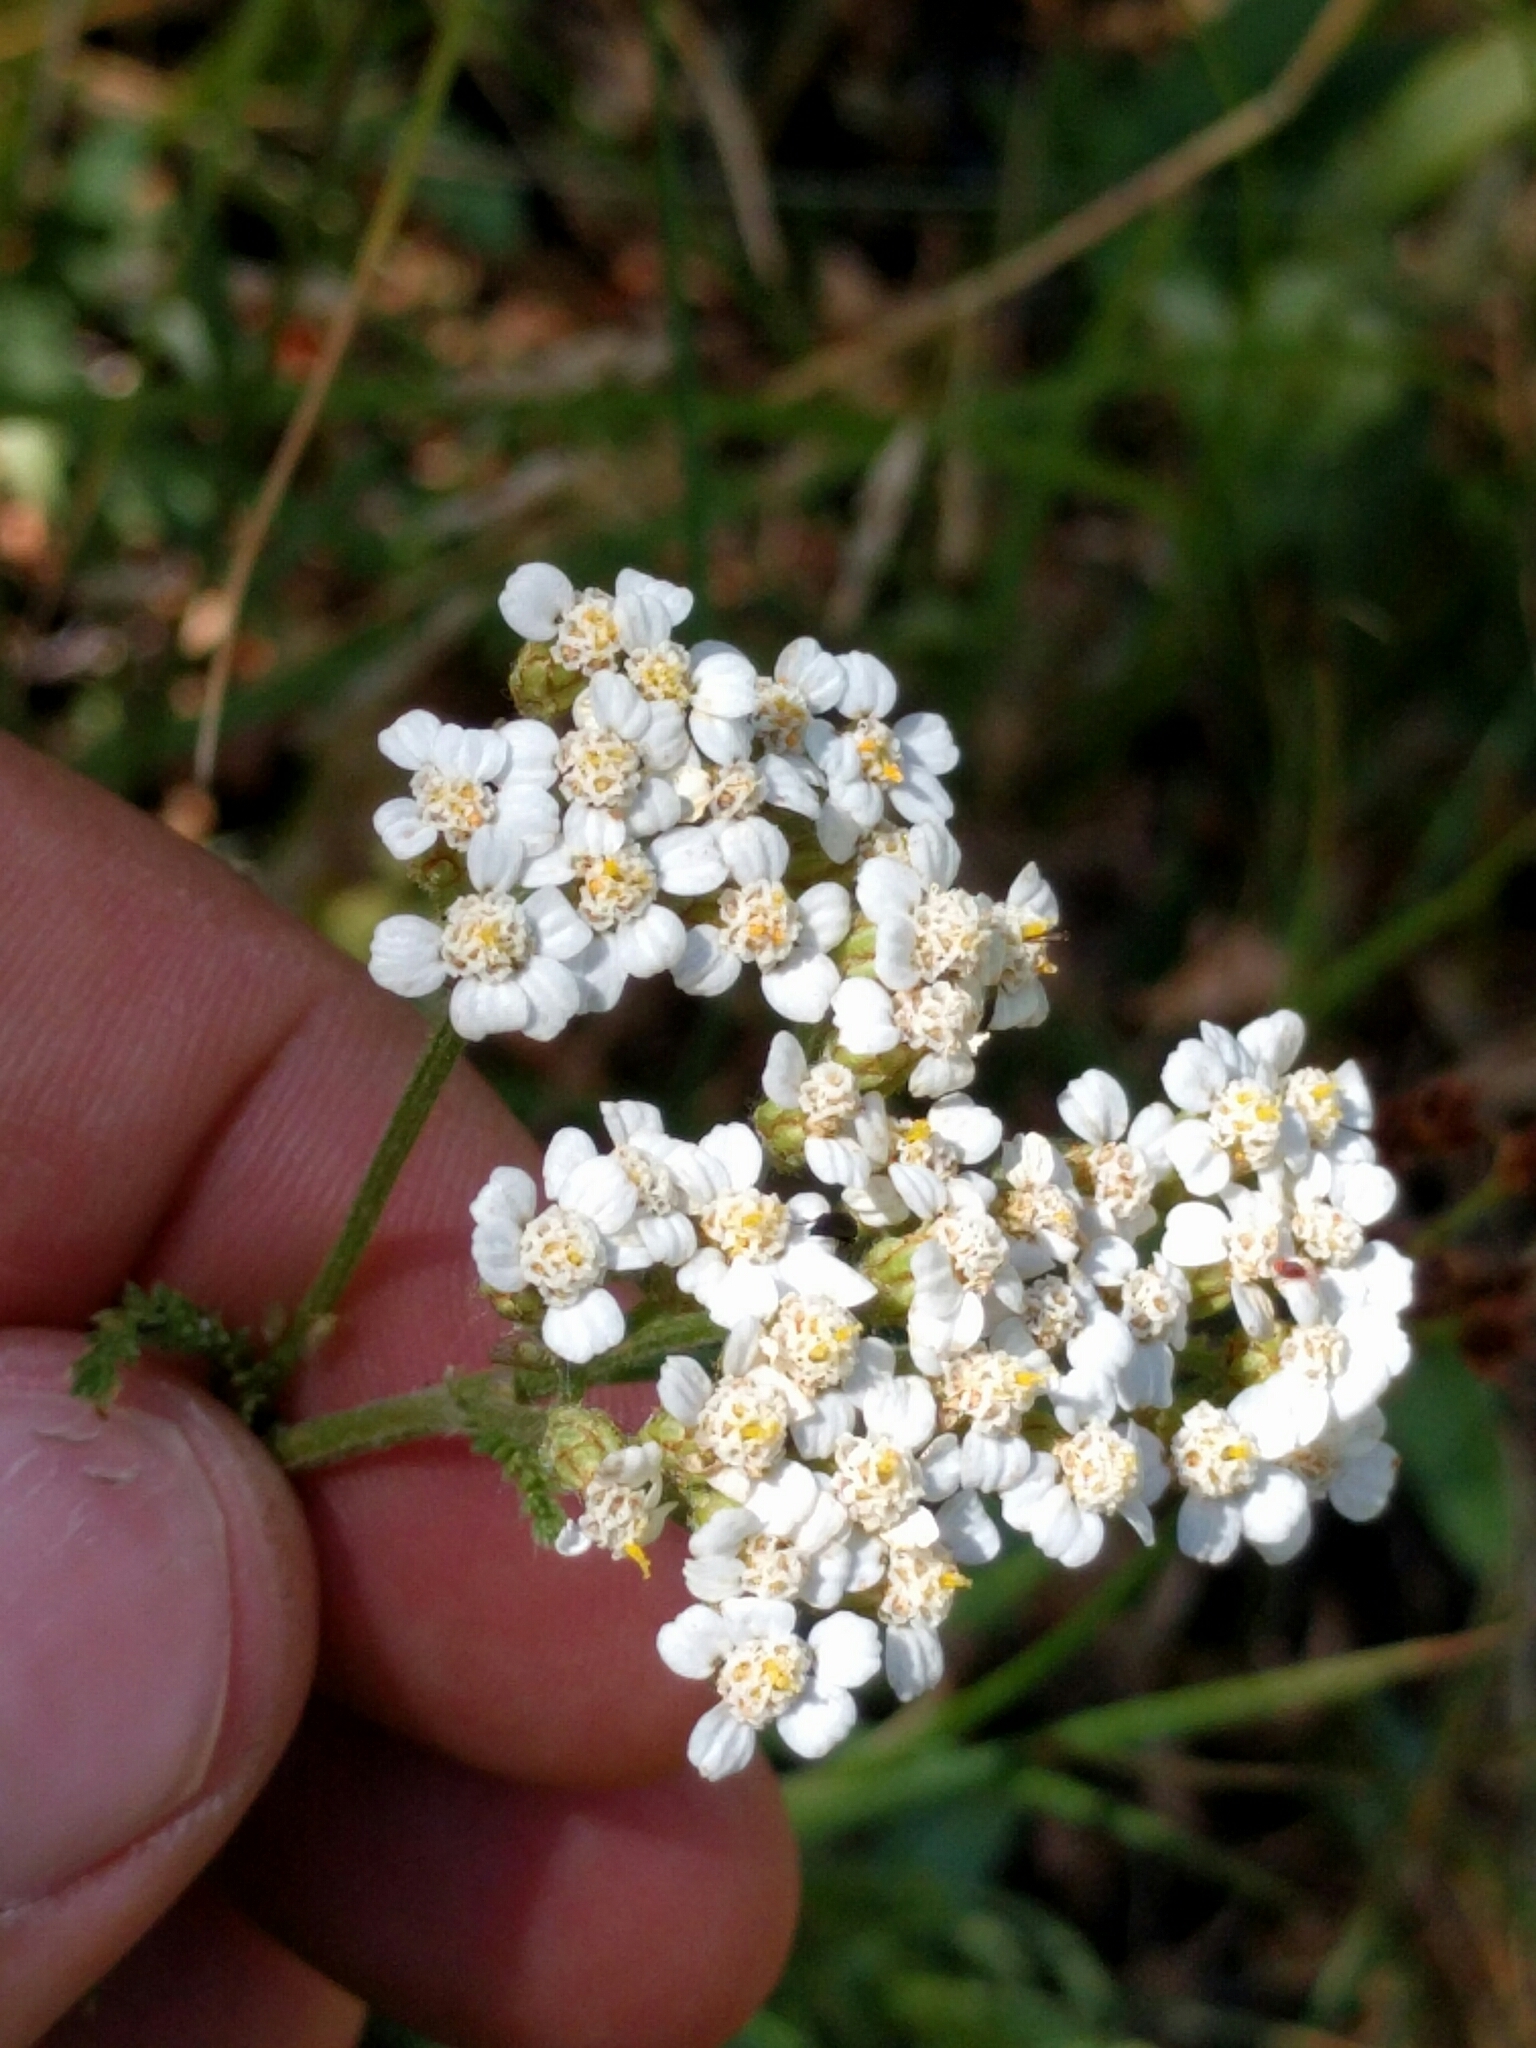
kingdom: Plantae
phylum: Tracheophyta
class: Magnoliopsida
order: Asterales
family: Asteraceae
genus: Achillea
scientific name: Achillea millefolium
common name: Yarrow
